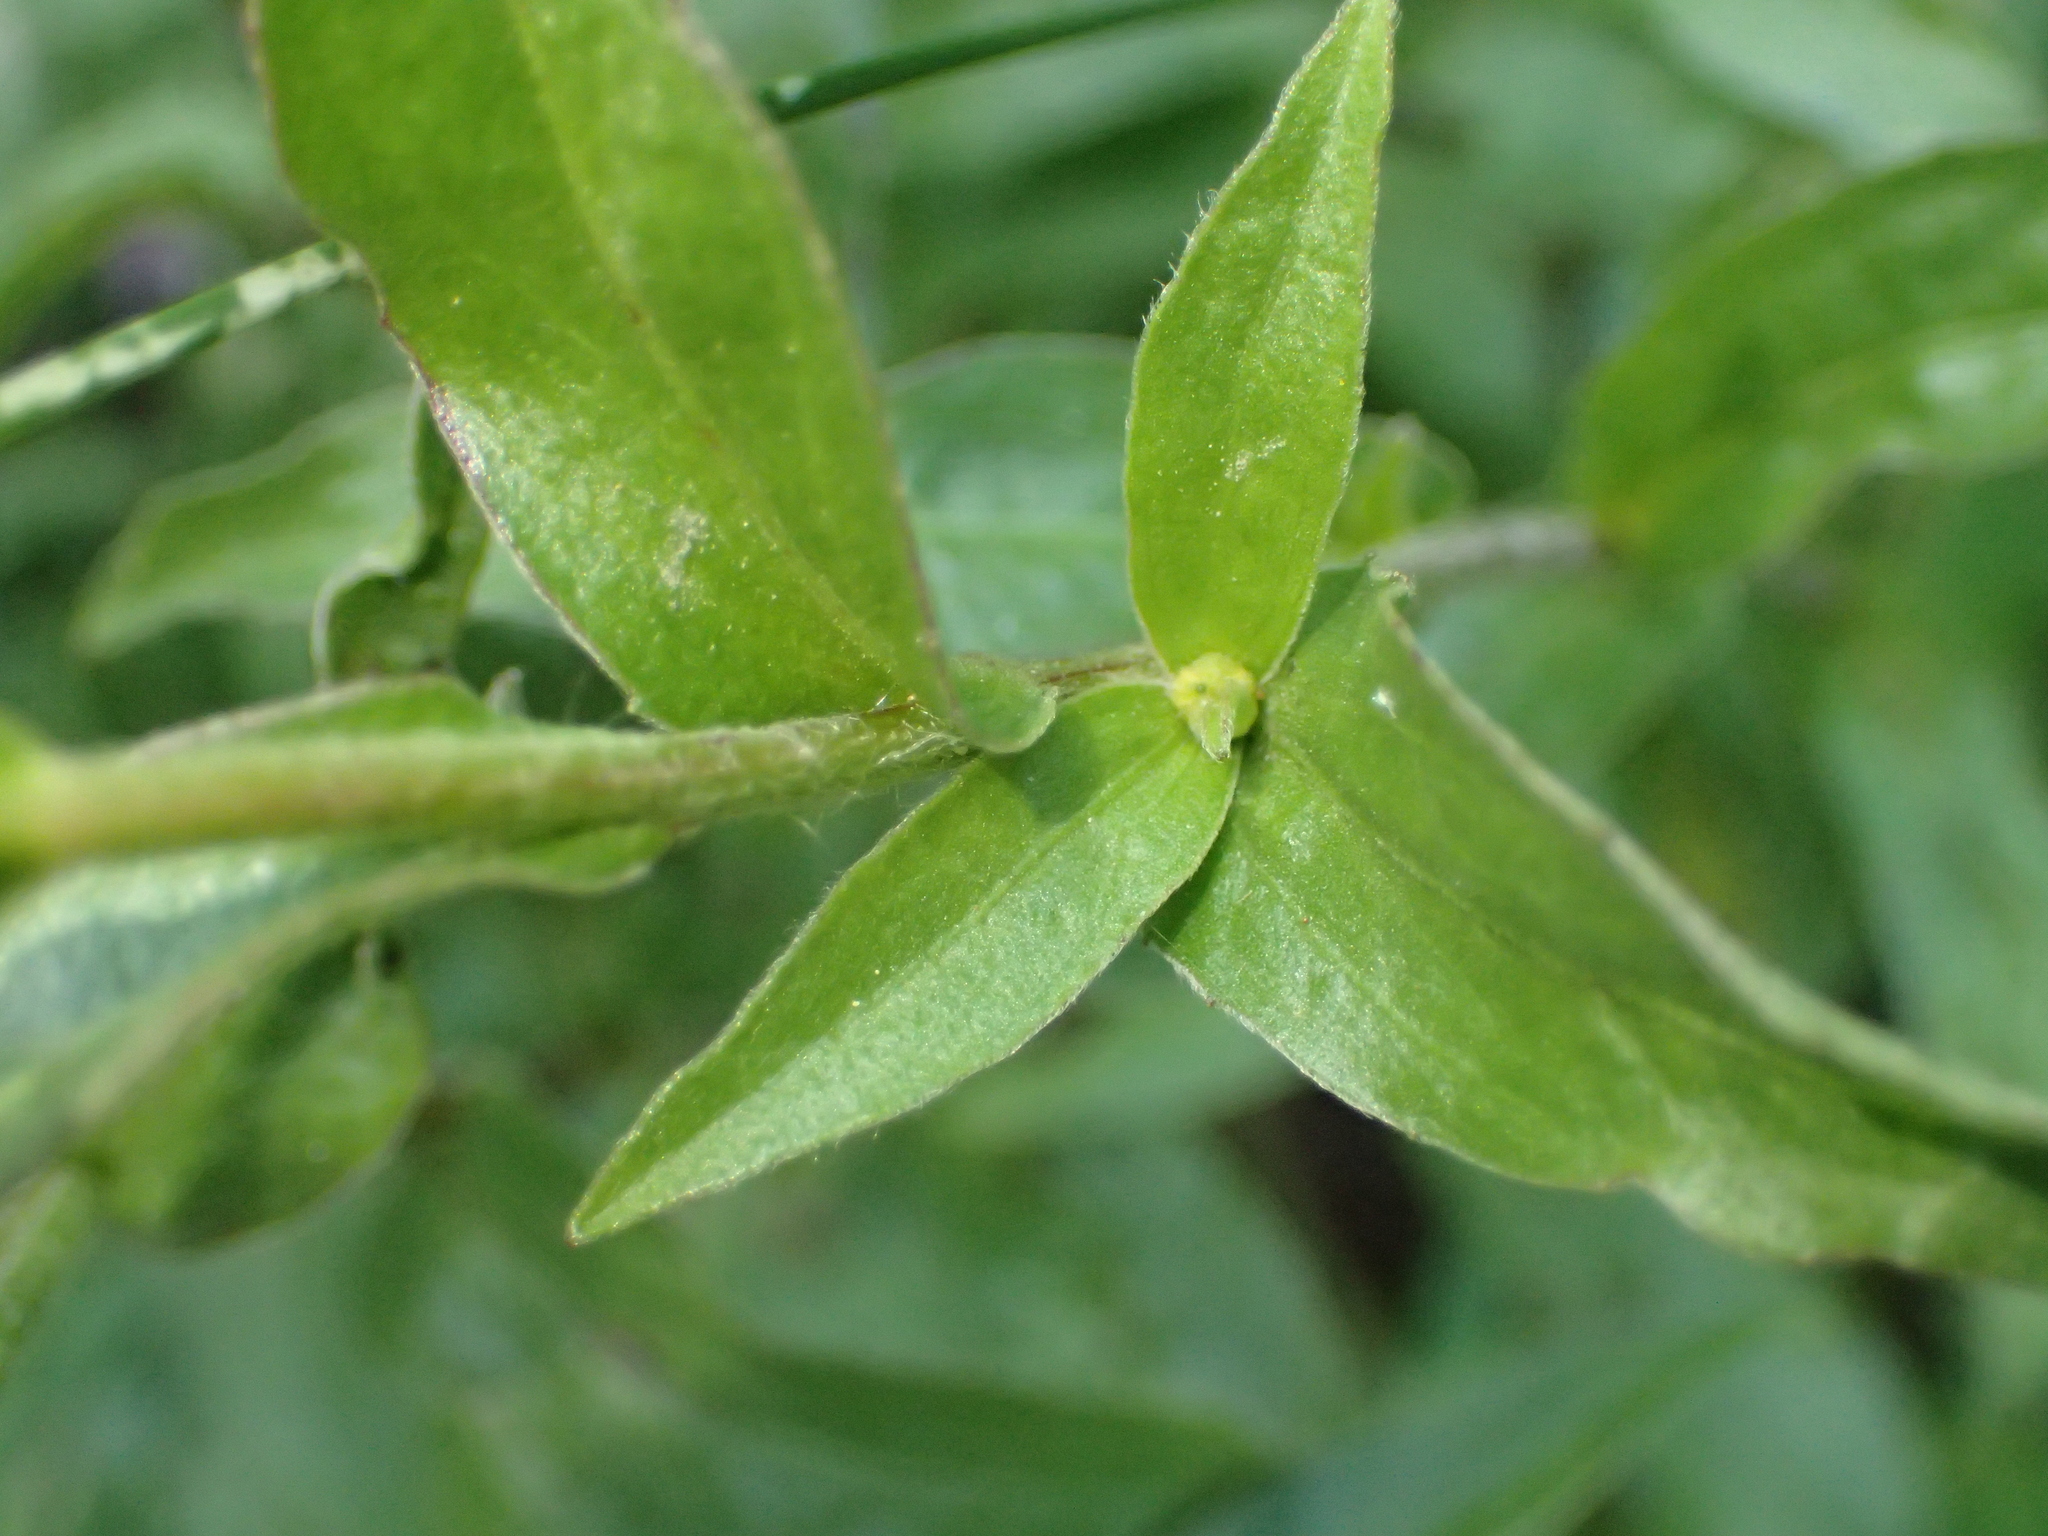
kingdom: Plantae
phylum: Tracheophyta
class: Magnoliopsida
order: Asterales
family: Asteraceae
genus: Buphthalmum
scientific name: Buphthalmum salicifolium
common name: Willow-leaved yellow-oxeye
